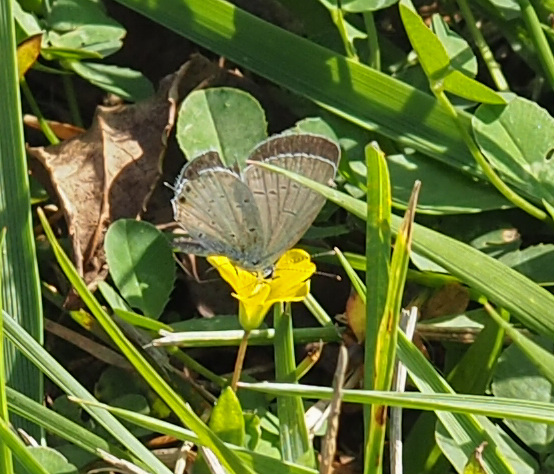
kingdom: Animalia
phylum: Arthropoda
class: Insecta
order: Lepidoptera
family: Lycaenidae
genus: Elkalyce
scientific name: Elkalyce comyntas
